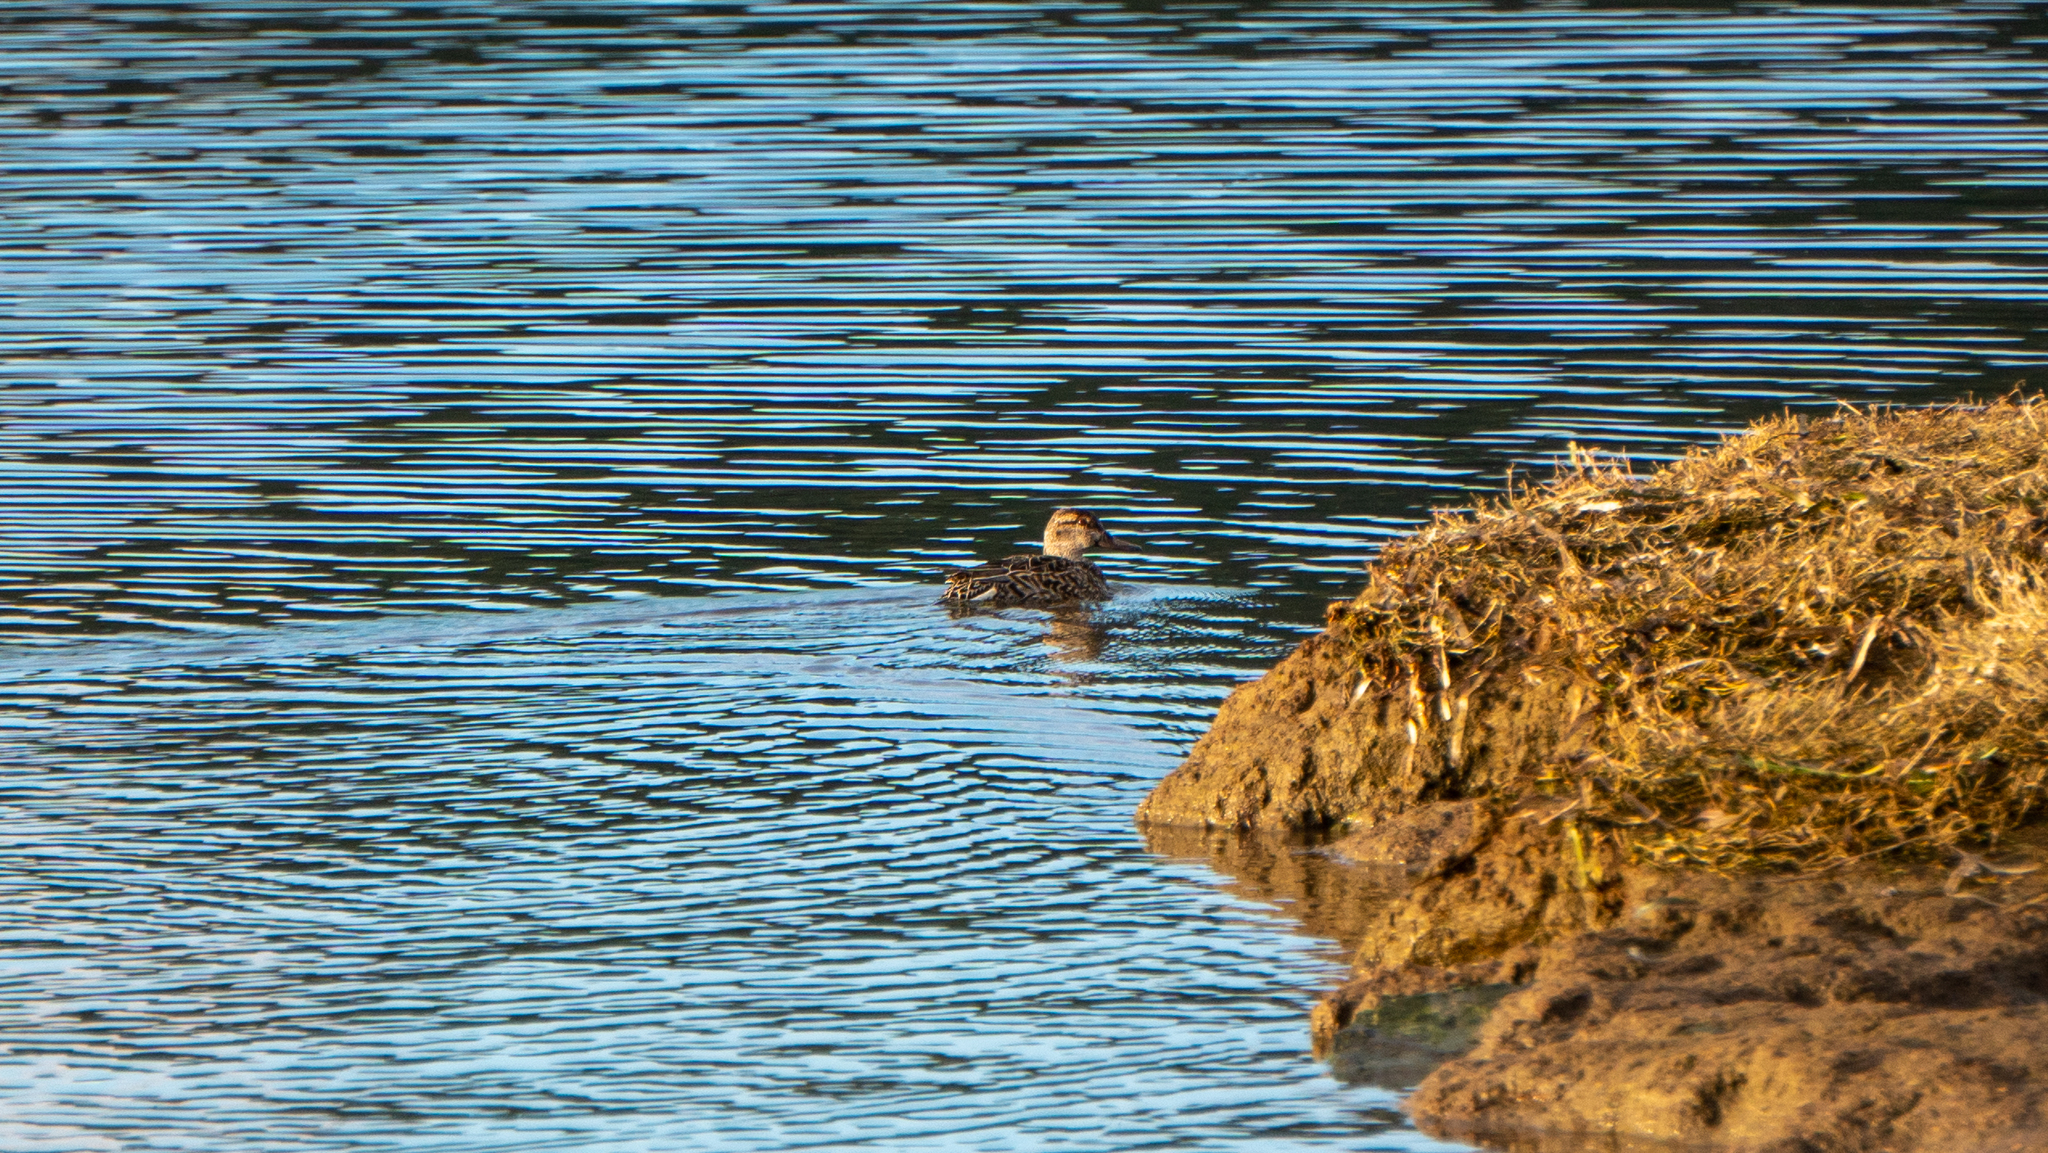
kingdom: Animalia
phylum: Chordata
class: Aves
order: Anseriformes
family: Anatidae
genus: Anas
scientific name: Anas platyrhynchos
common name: Mallard
